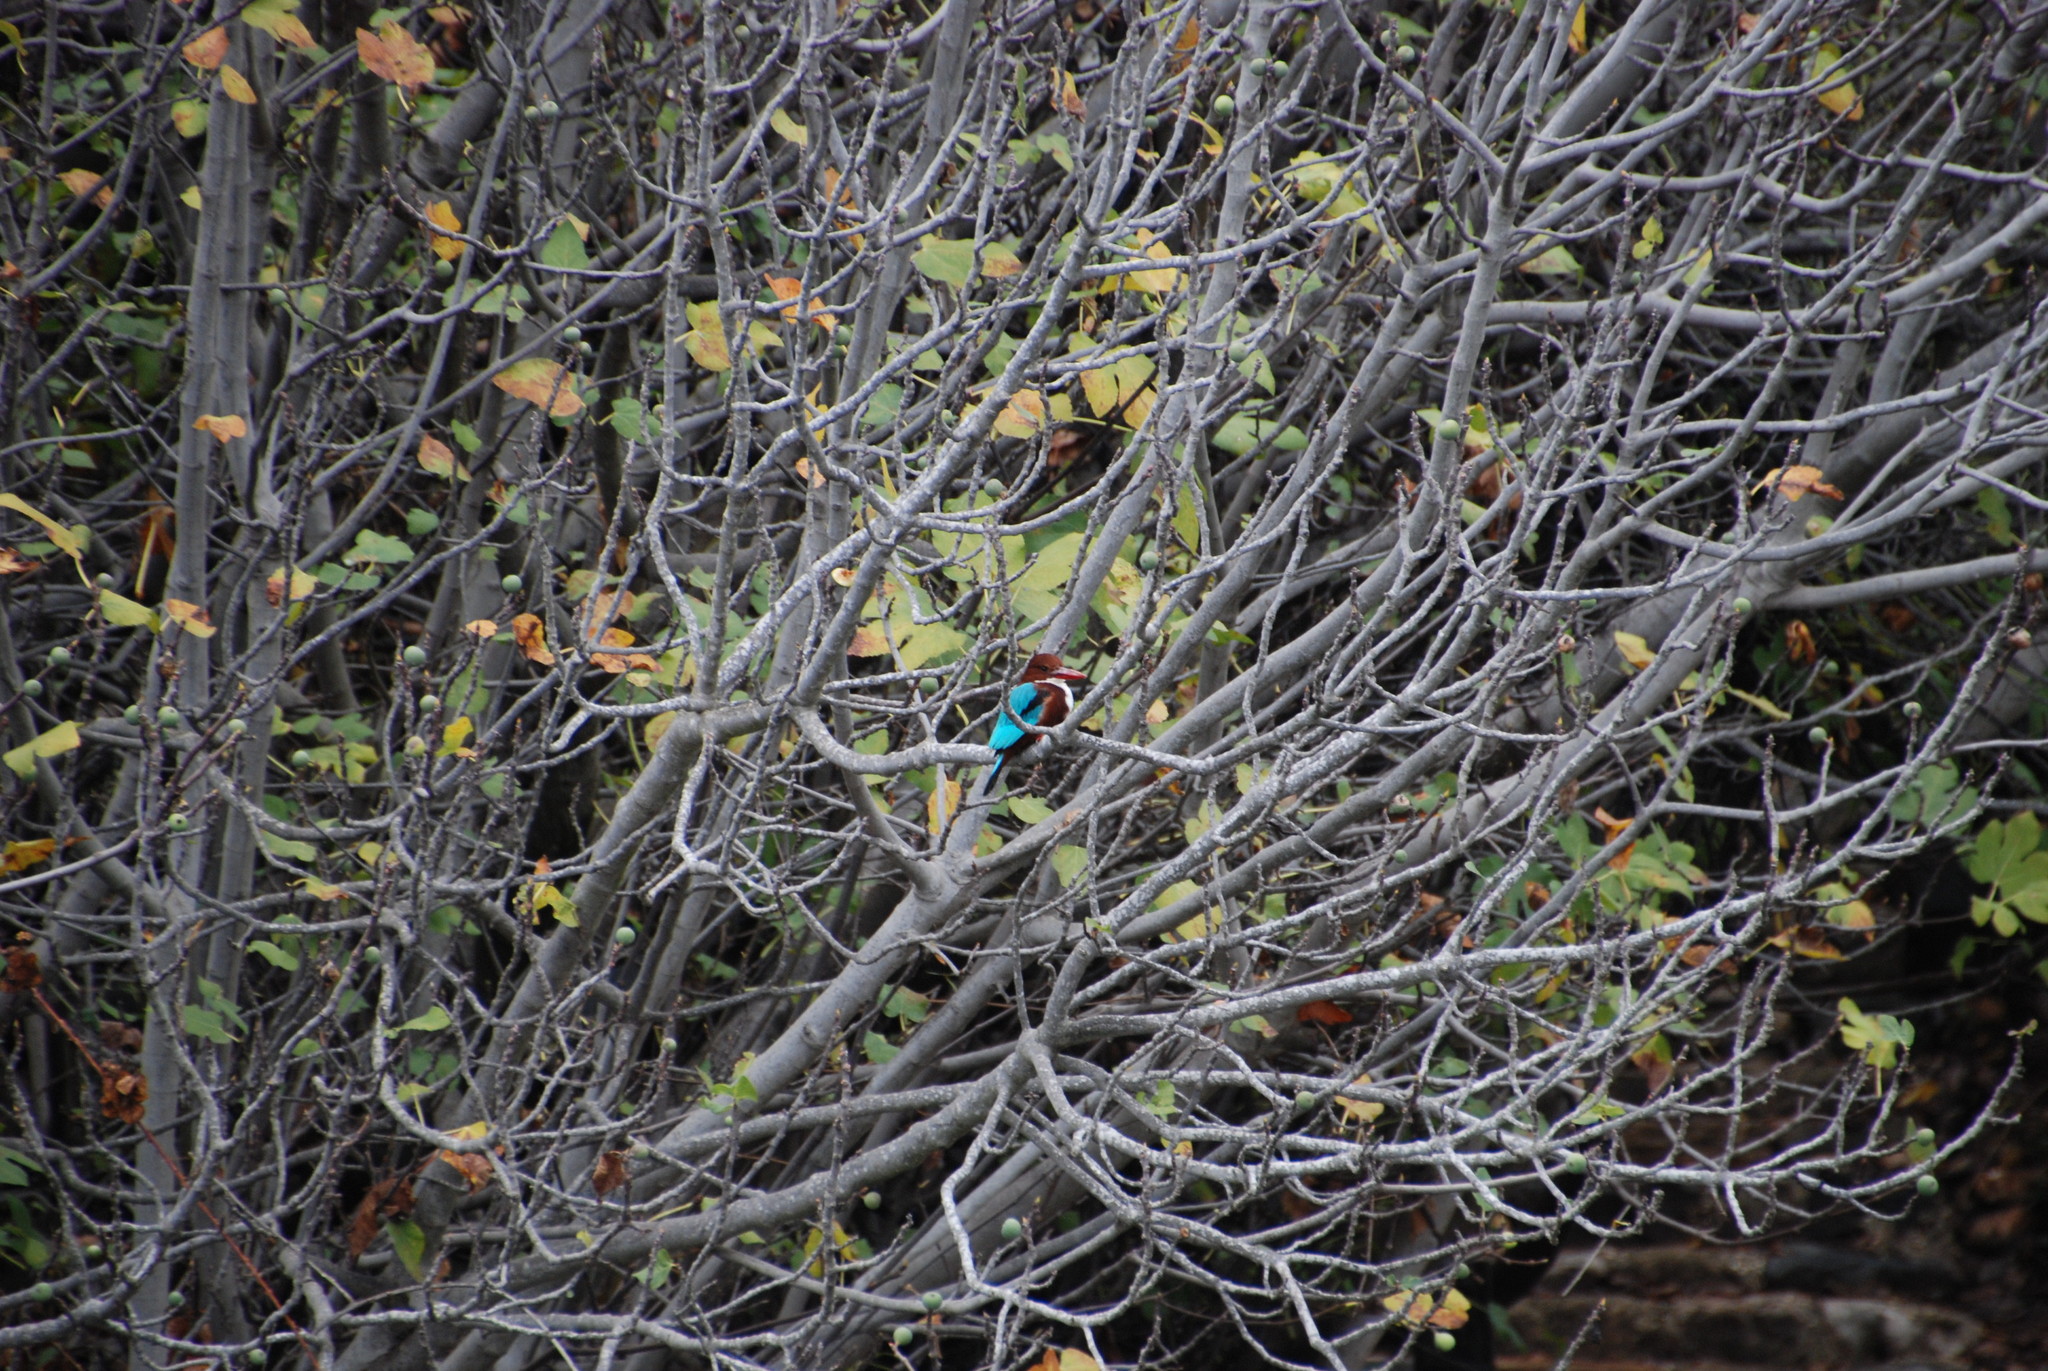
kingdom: Animalia
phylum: Chordata
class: Aves
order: Coraciiformes
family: Alcedinidae
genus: Halcyon
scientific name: Halcyon smyrnensis
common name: White-throated kingfisher
